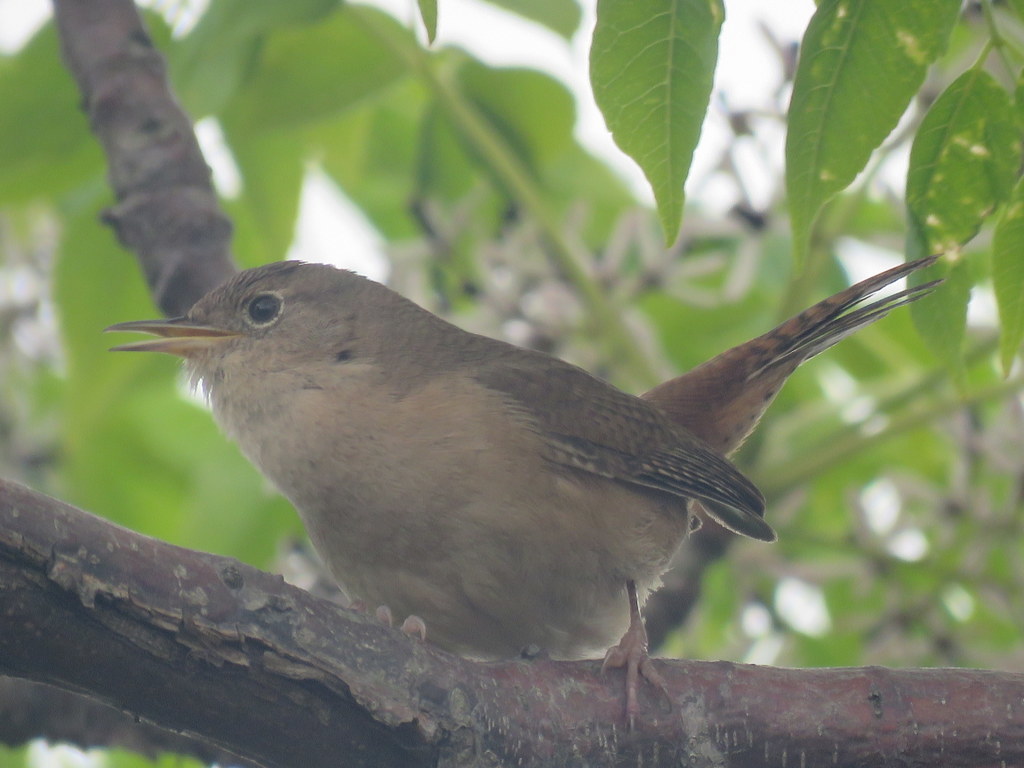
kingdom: Animalia
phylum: Chordata
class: Aves
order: Passeriformes
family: Troglodytidae
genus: Troglodytes
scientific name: Troglodytes aedon
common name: House wren
